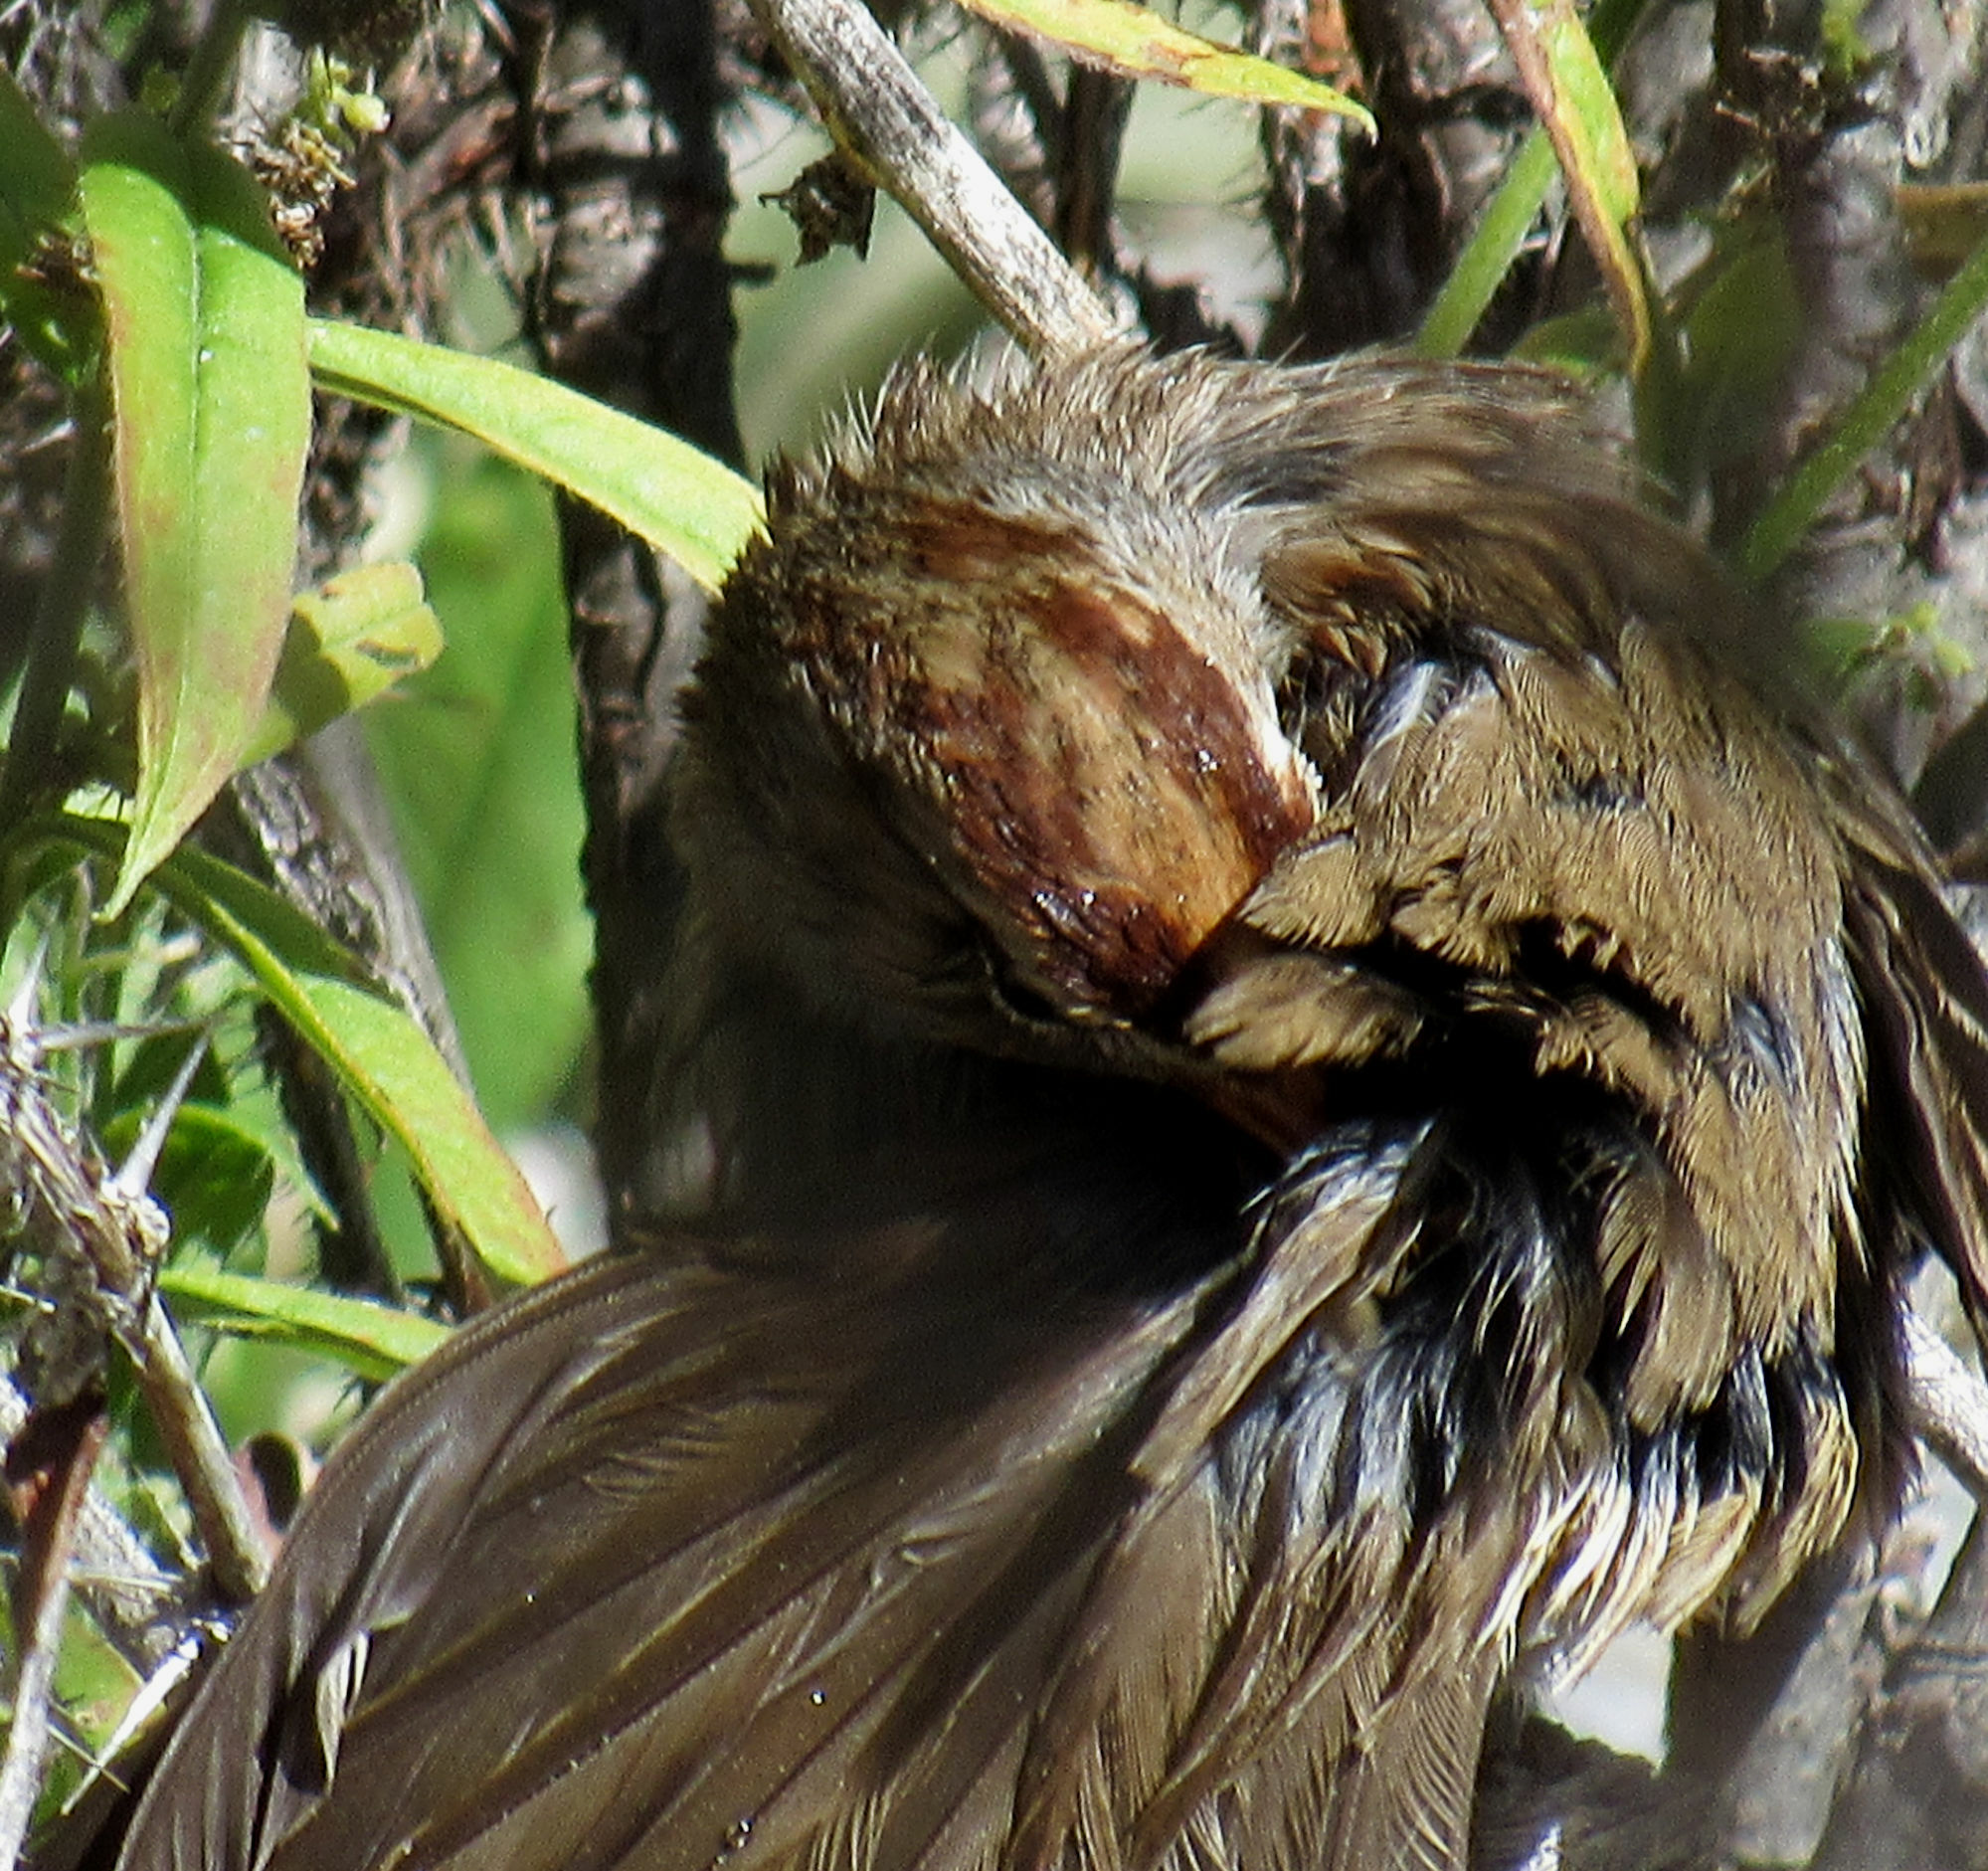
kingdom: Animalia
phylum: Chordata
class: Aves
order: Passeriformes
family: Passerellidae
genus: Zonotrichia
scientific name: Zonotrichia leucophrys
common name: White-crowned sparrow
